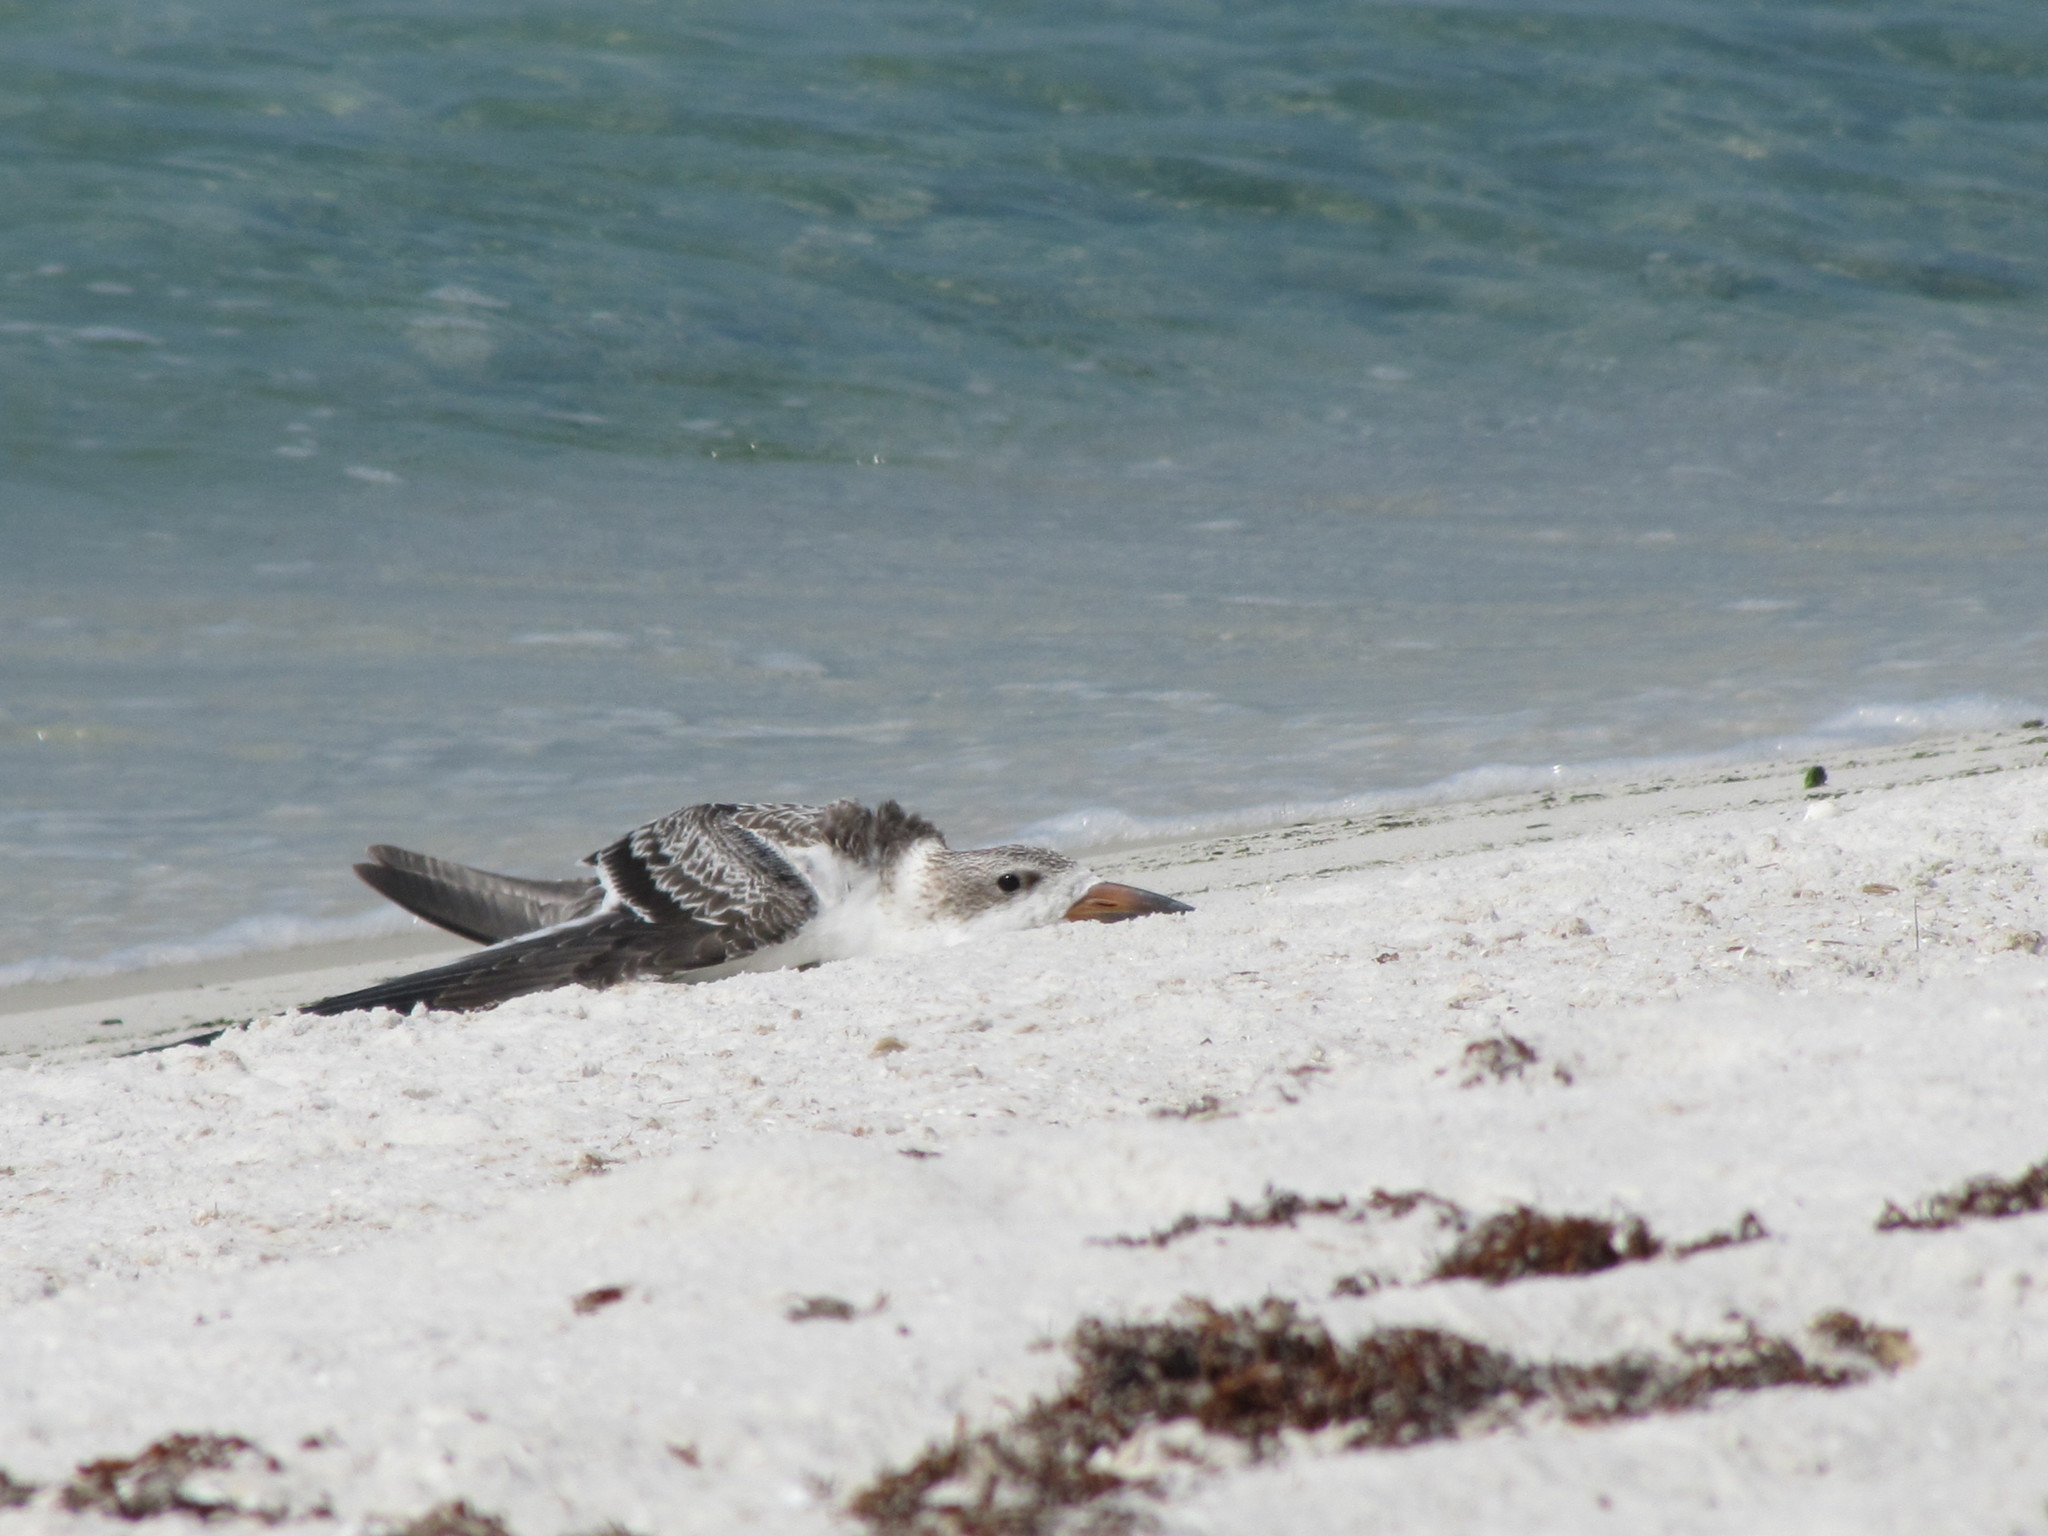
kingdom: Animalia
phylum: Chordata
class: Aves
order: Charadriiformes
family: Laridae
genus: Rynchops
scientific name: Rynchops niger
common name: Black skimmer
